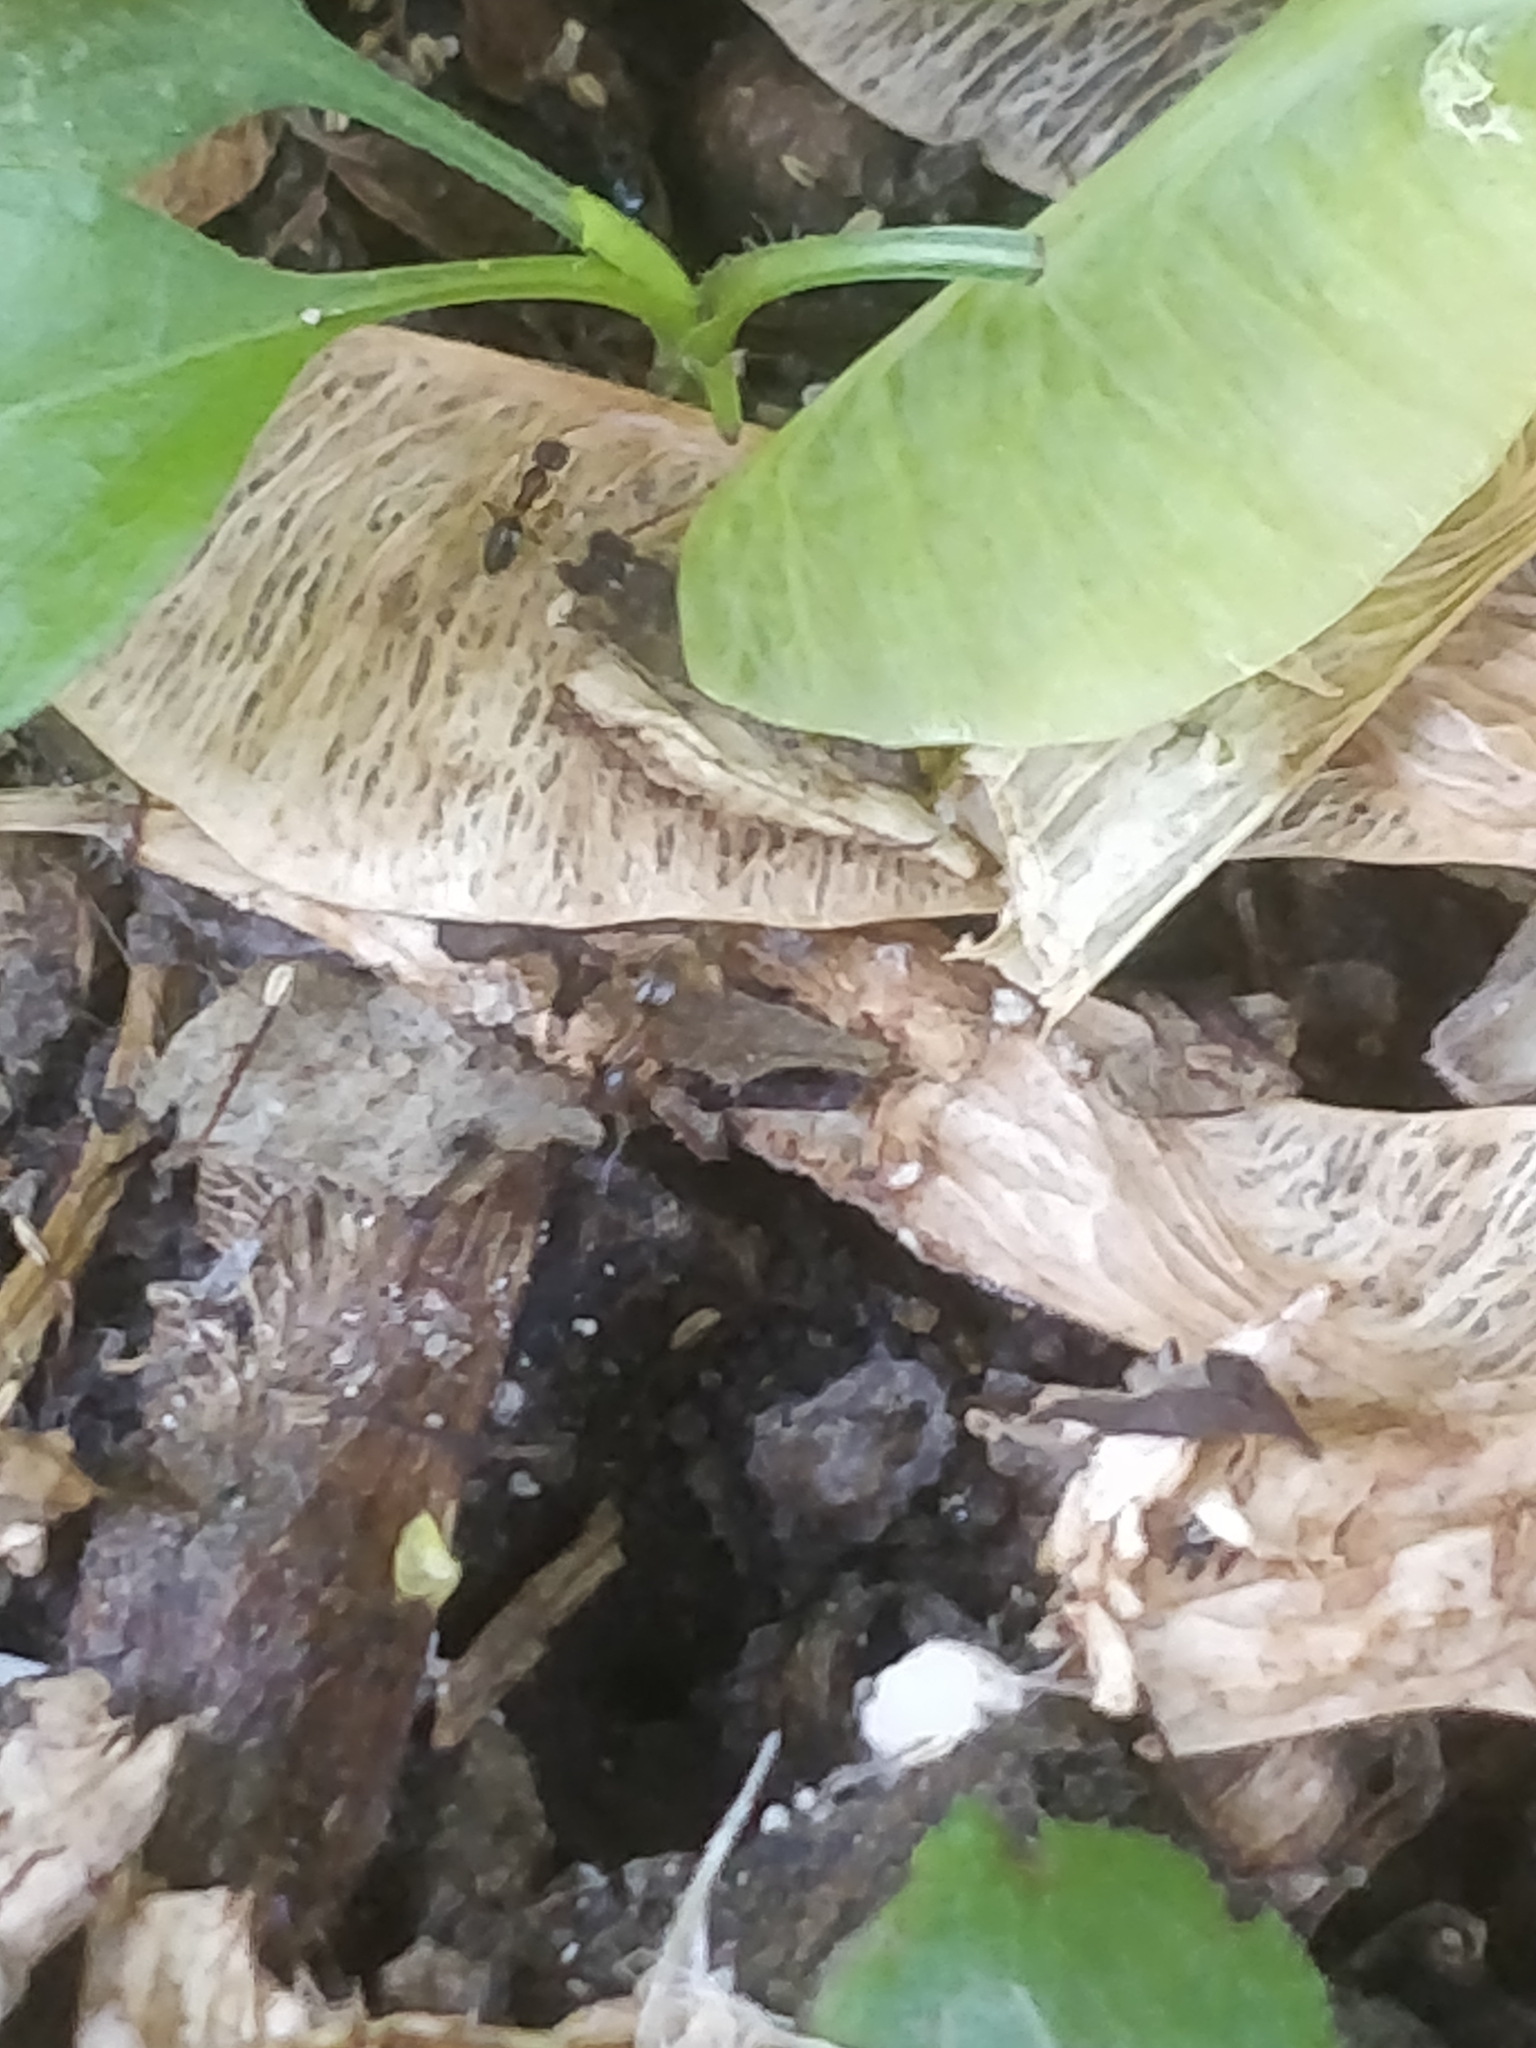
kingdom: Animalia
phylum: Arthropoda
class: Insecta
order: Hymenoptera
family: Formicidae
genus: Tapinoma
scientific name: Tapinoma sessile
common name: Odorous house ant
